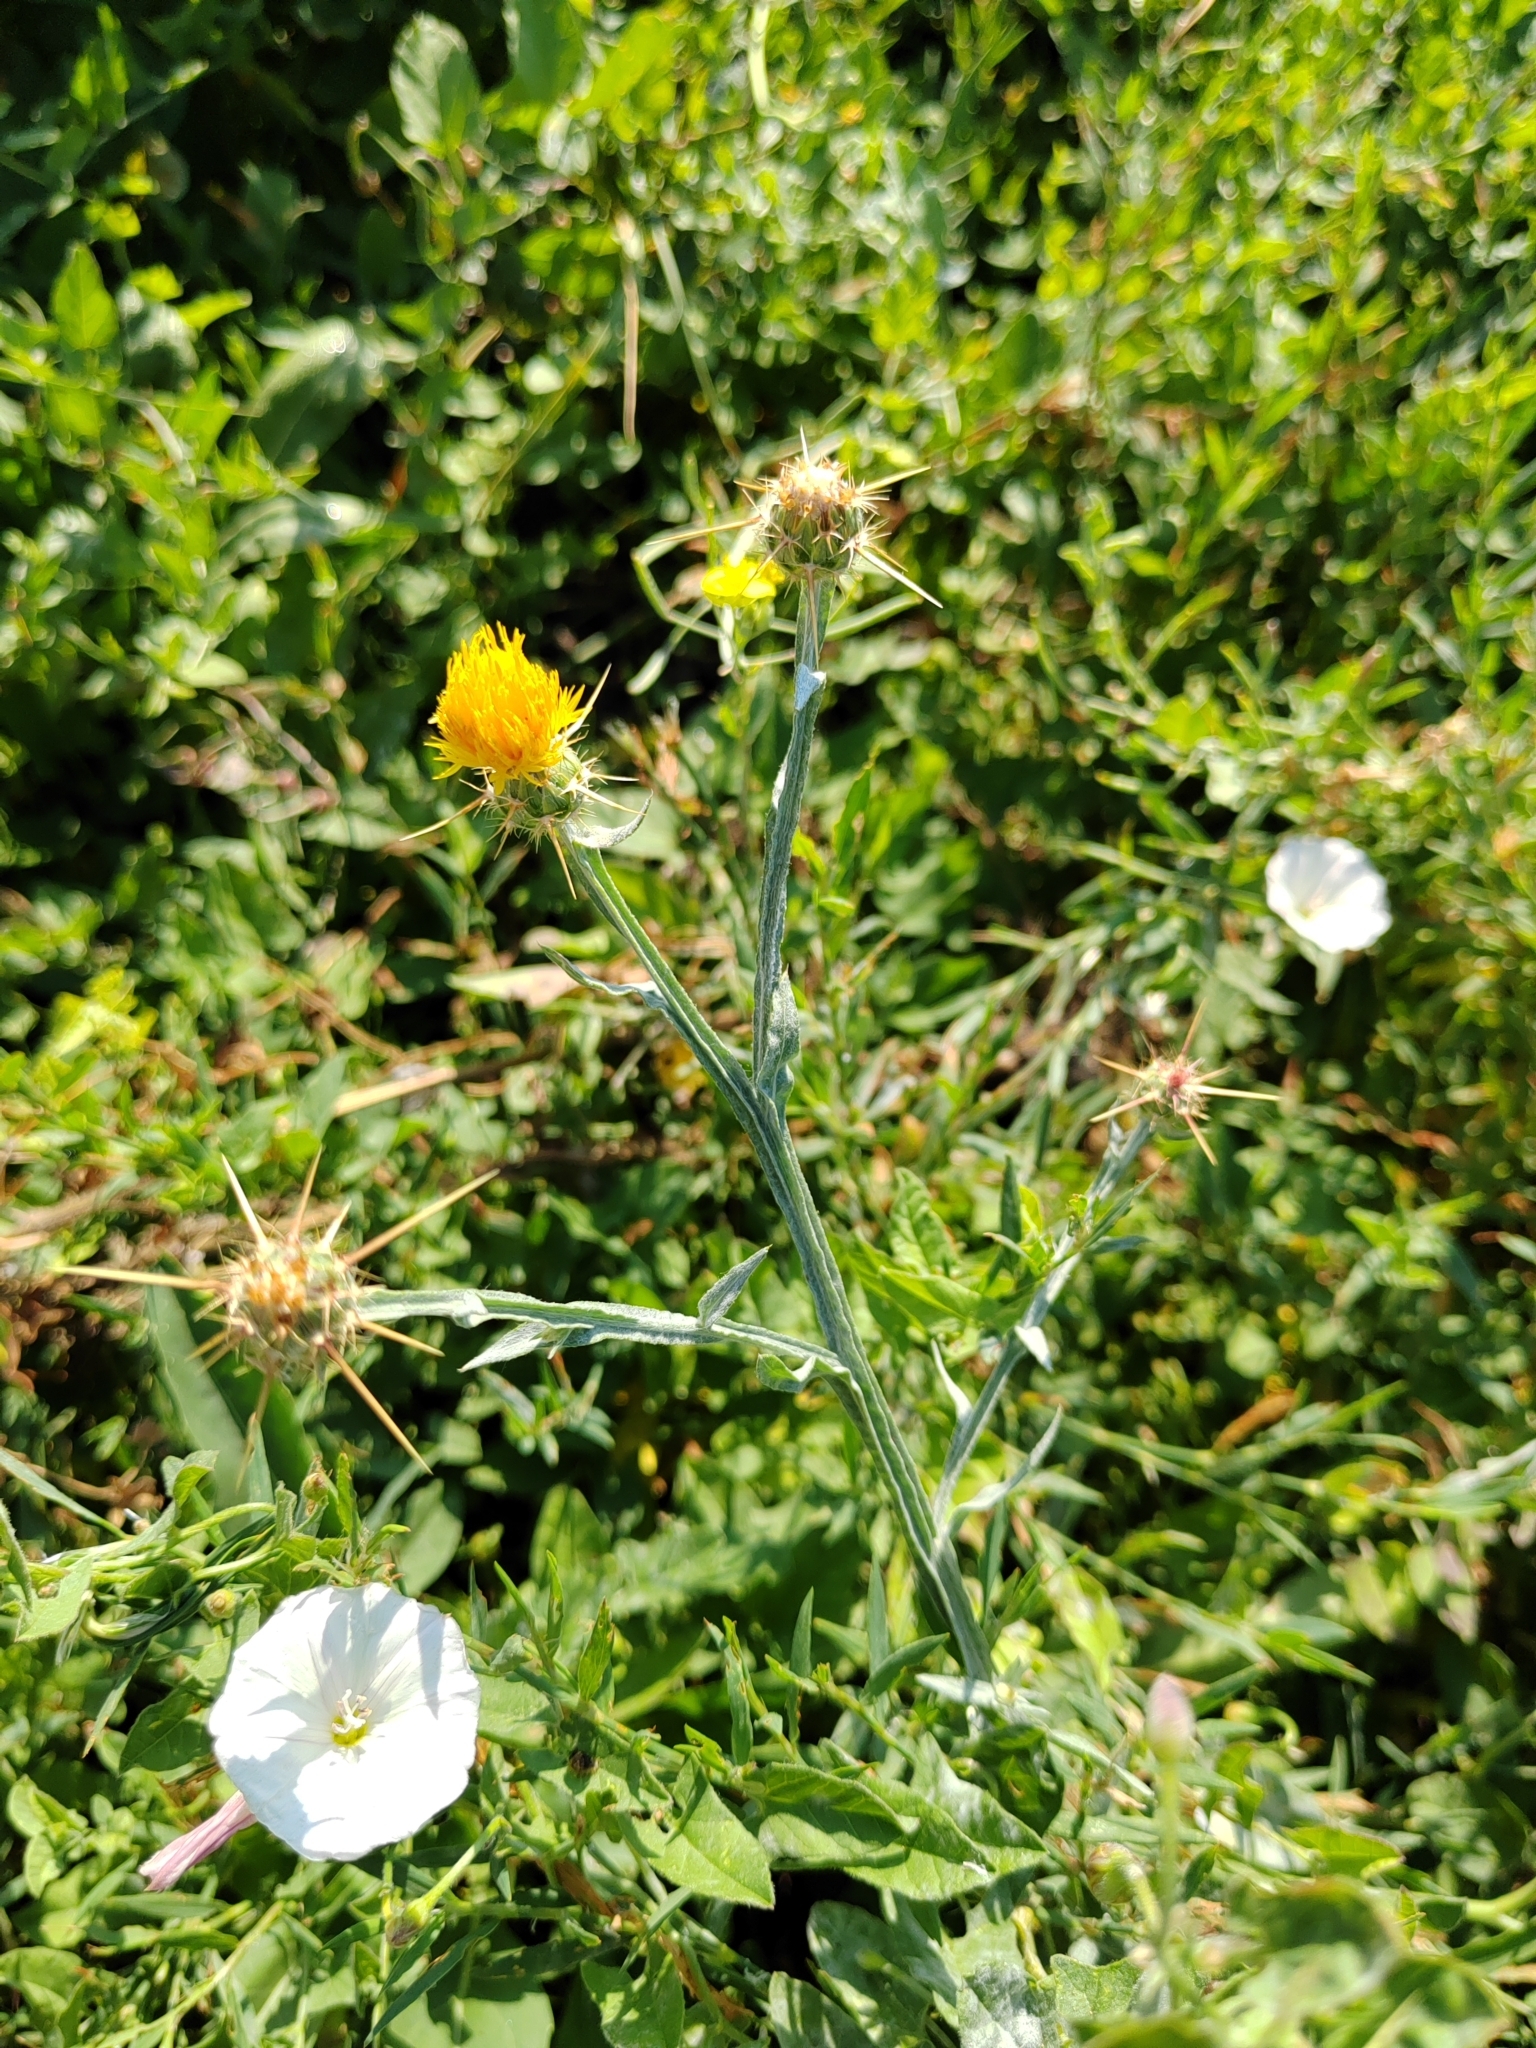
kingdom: Plantae
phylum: Tracheophyta
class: Magnoliopsida
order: Asterales
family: Asteraceae
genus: Centaurea
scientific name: Centaurea solstitialis
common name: Yellow star-thistle
